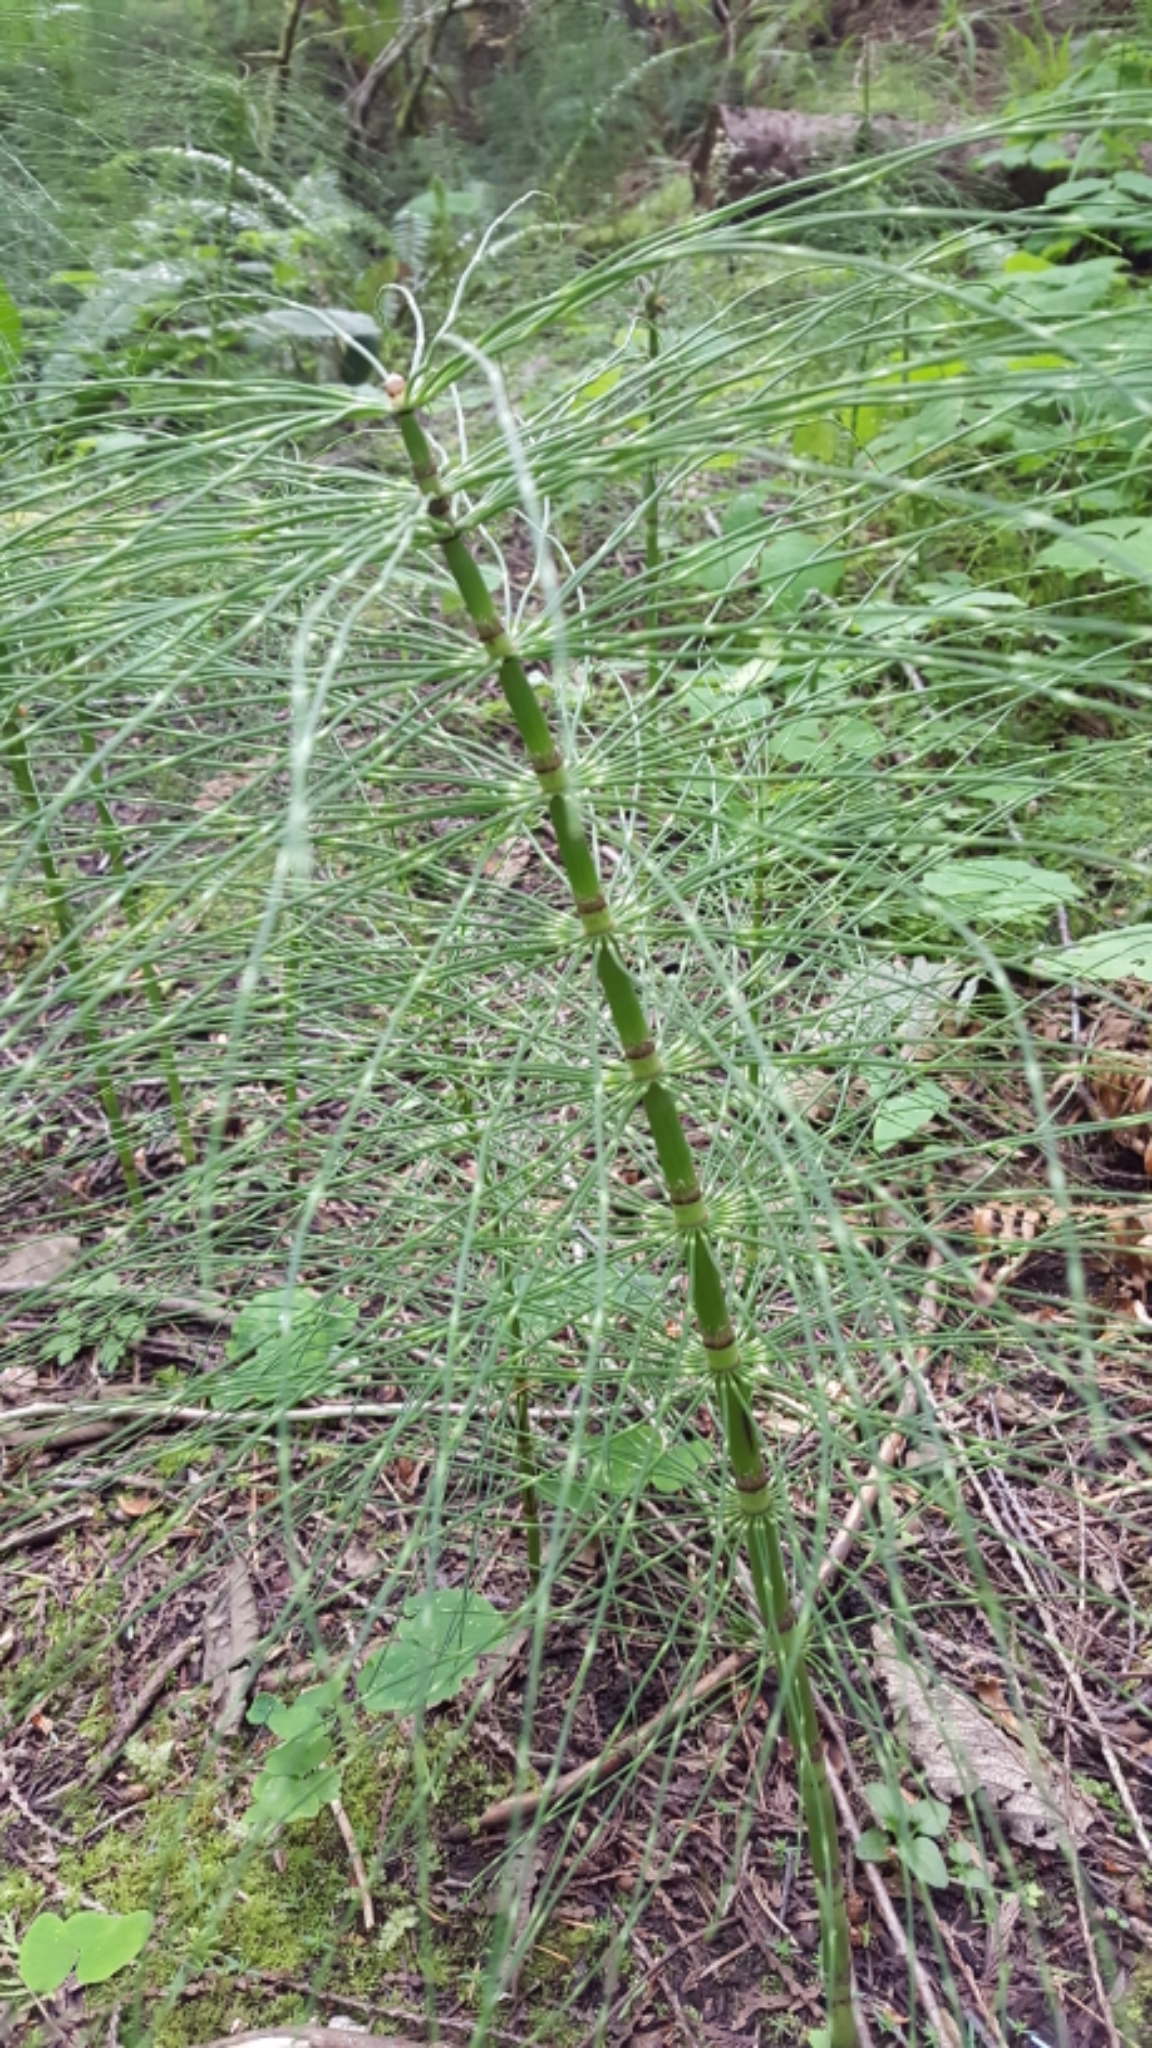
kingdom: Plantae
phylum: Tracheophyta
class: Polypodiopsida
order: Equisetales
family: Equisetaceae
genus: Equisetum
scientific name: Equisetum braunii
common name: Braun's horsetail
